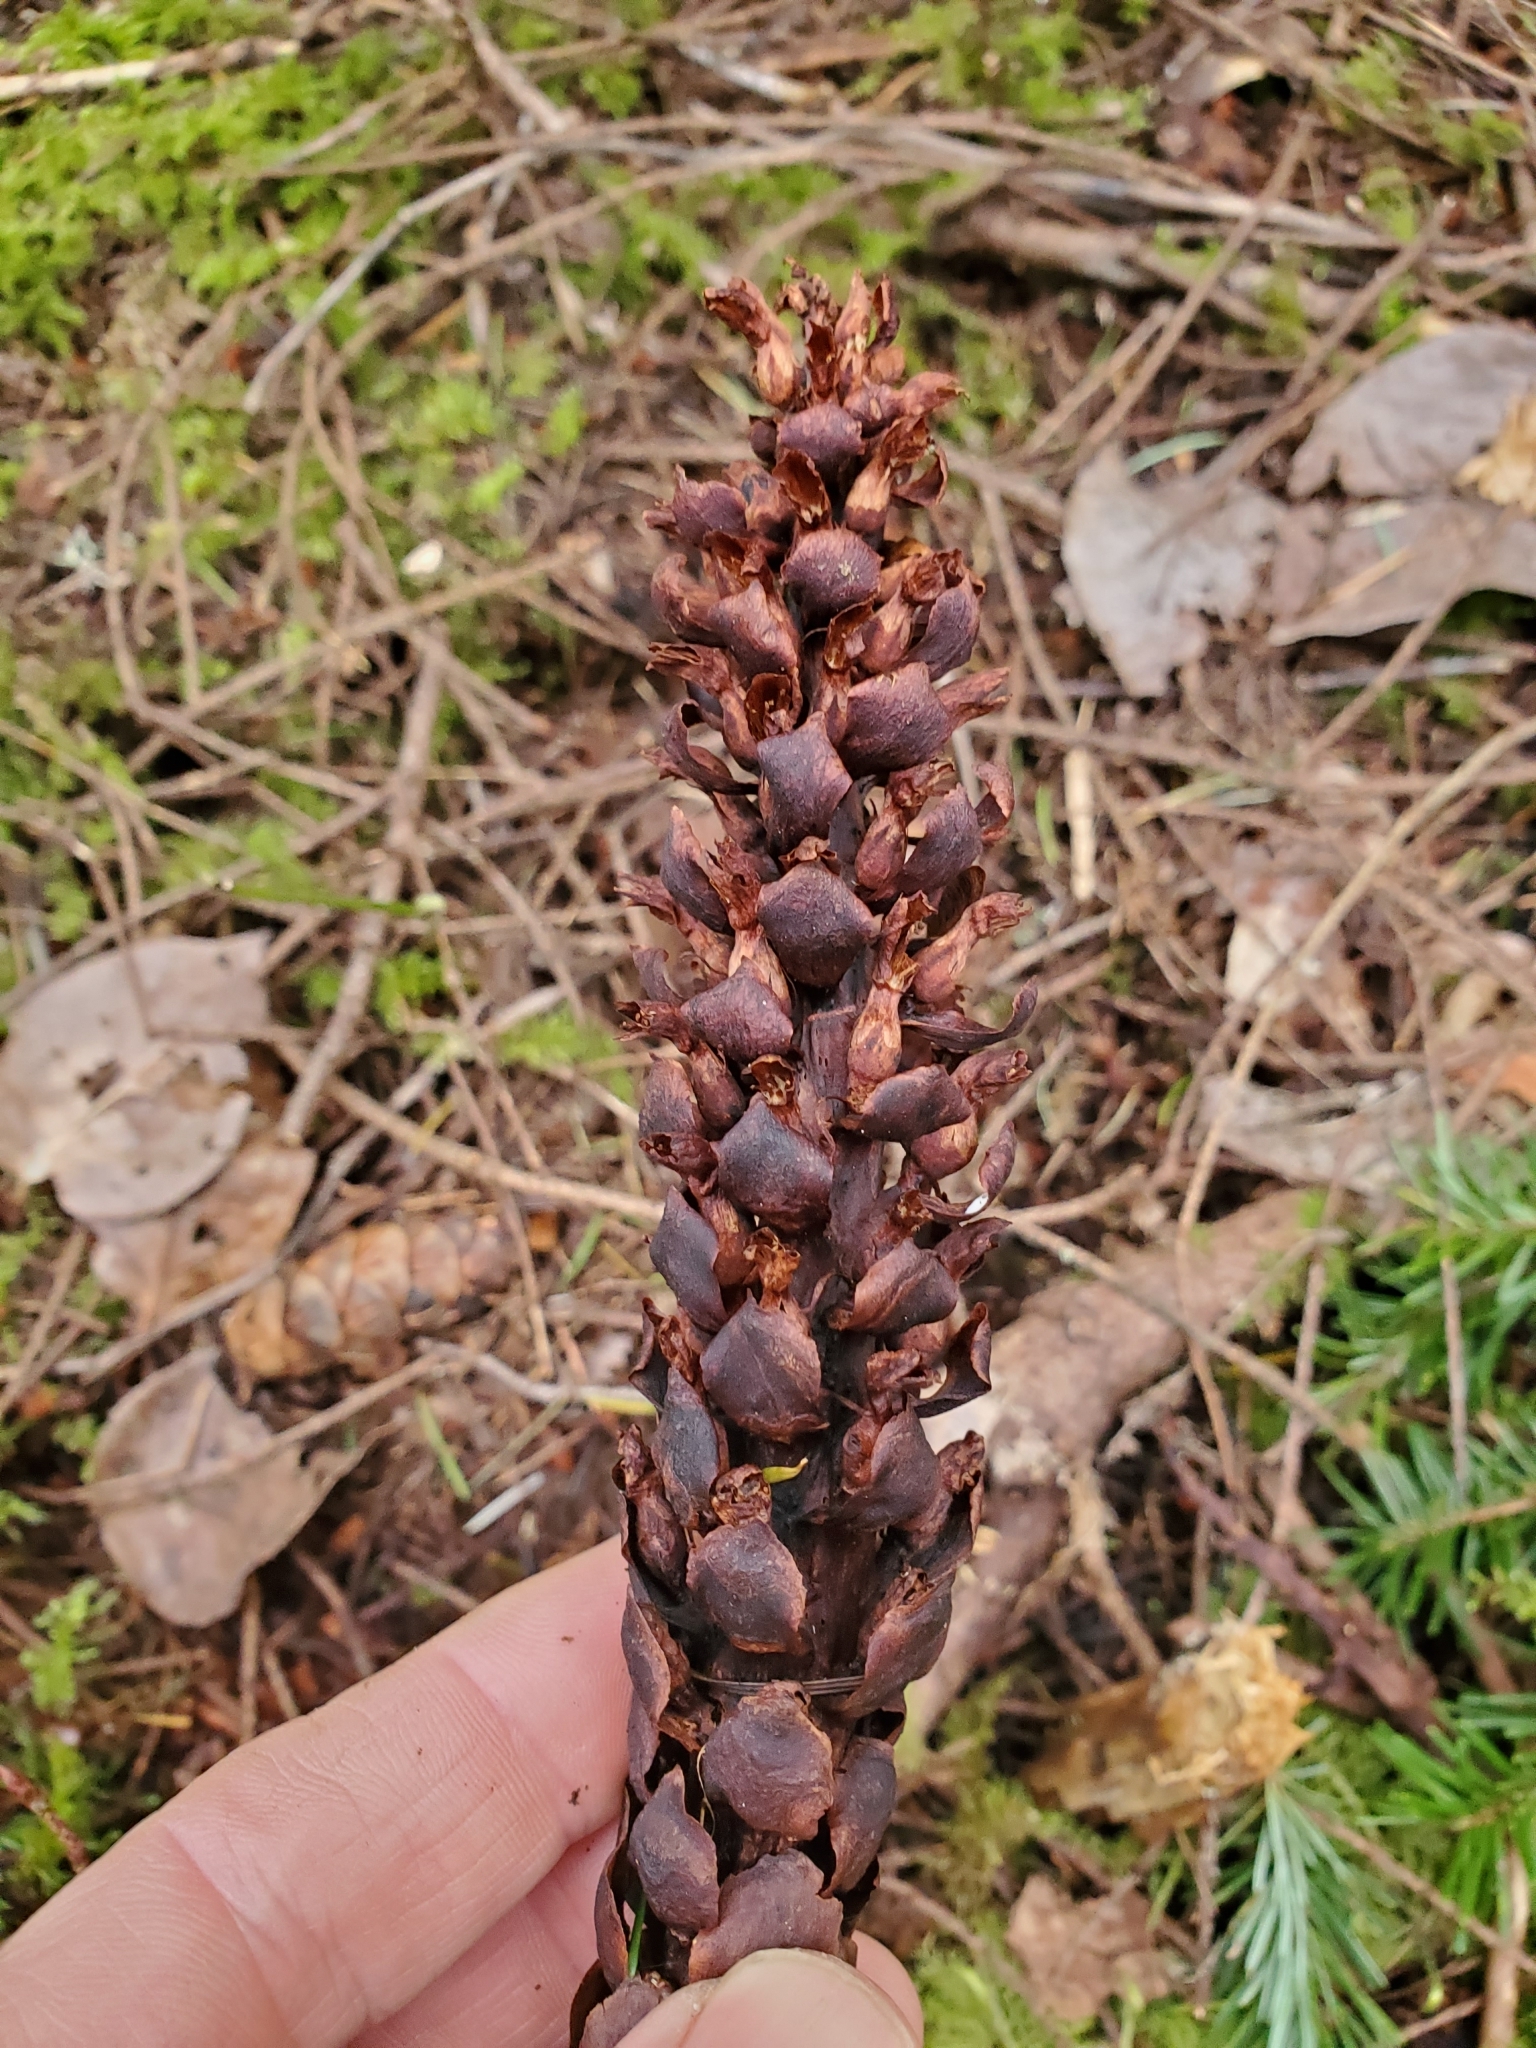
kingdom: Plantae
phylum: Tracheophyta
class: Magnoliopsida
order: Lamiales
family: Orobanchaceae
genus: Kopsiopsis
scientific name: Kopsiopsis hookeri
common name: Hooker's groundcone
